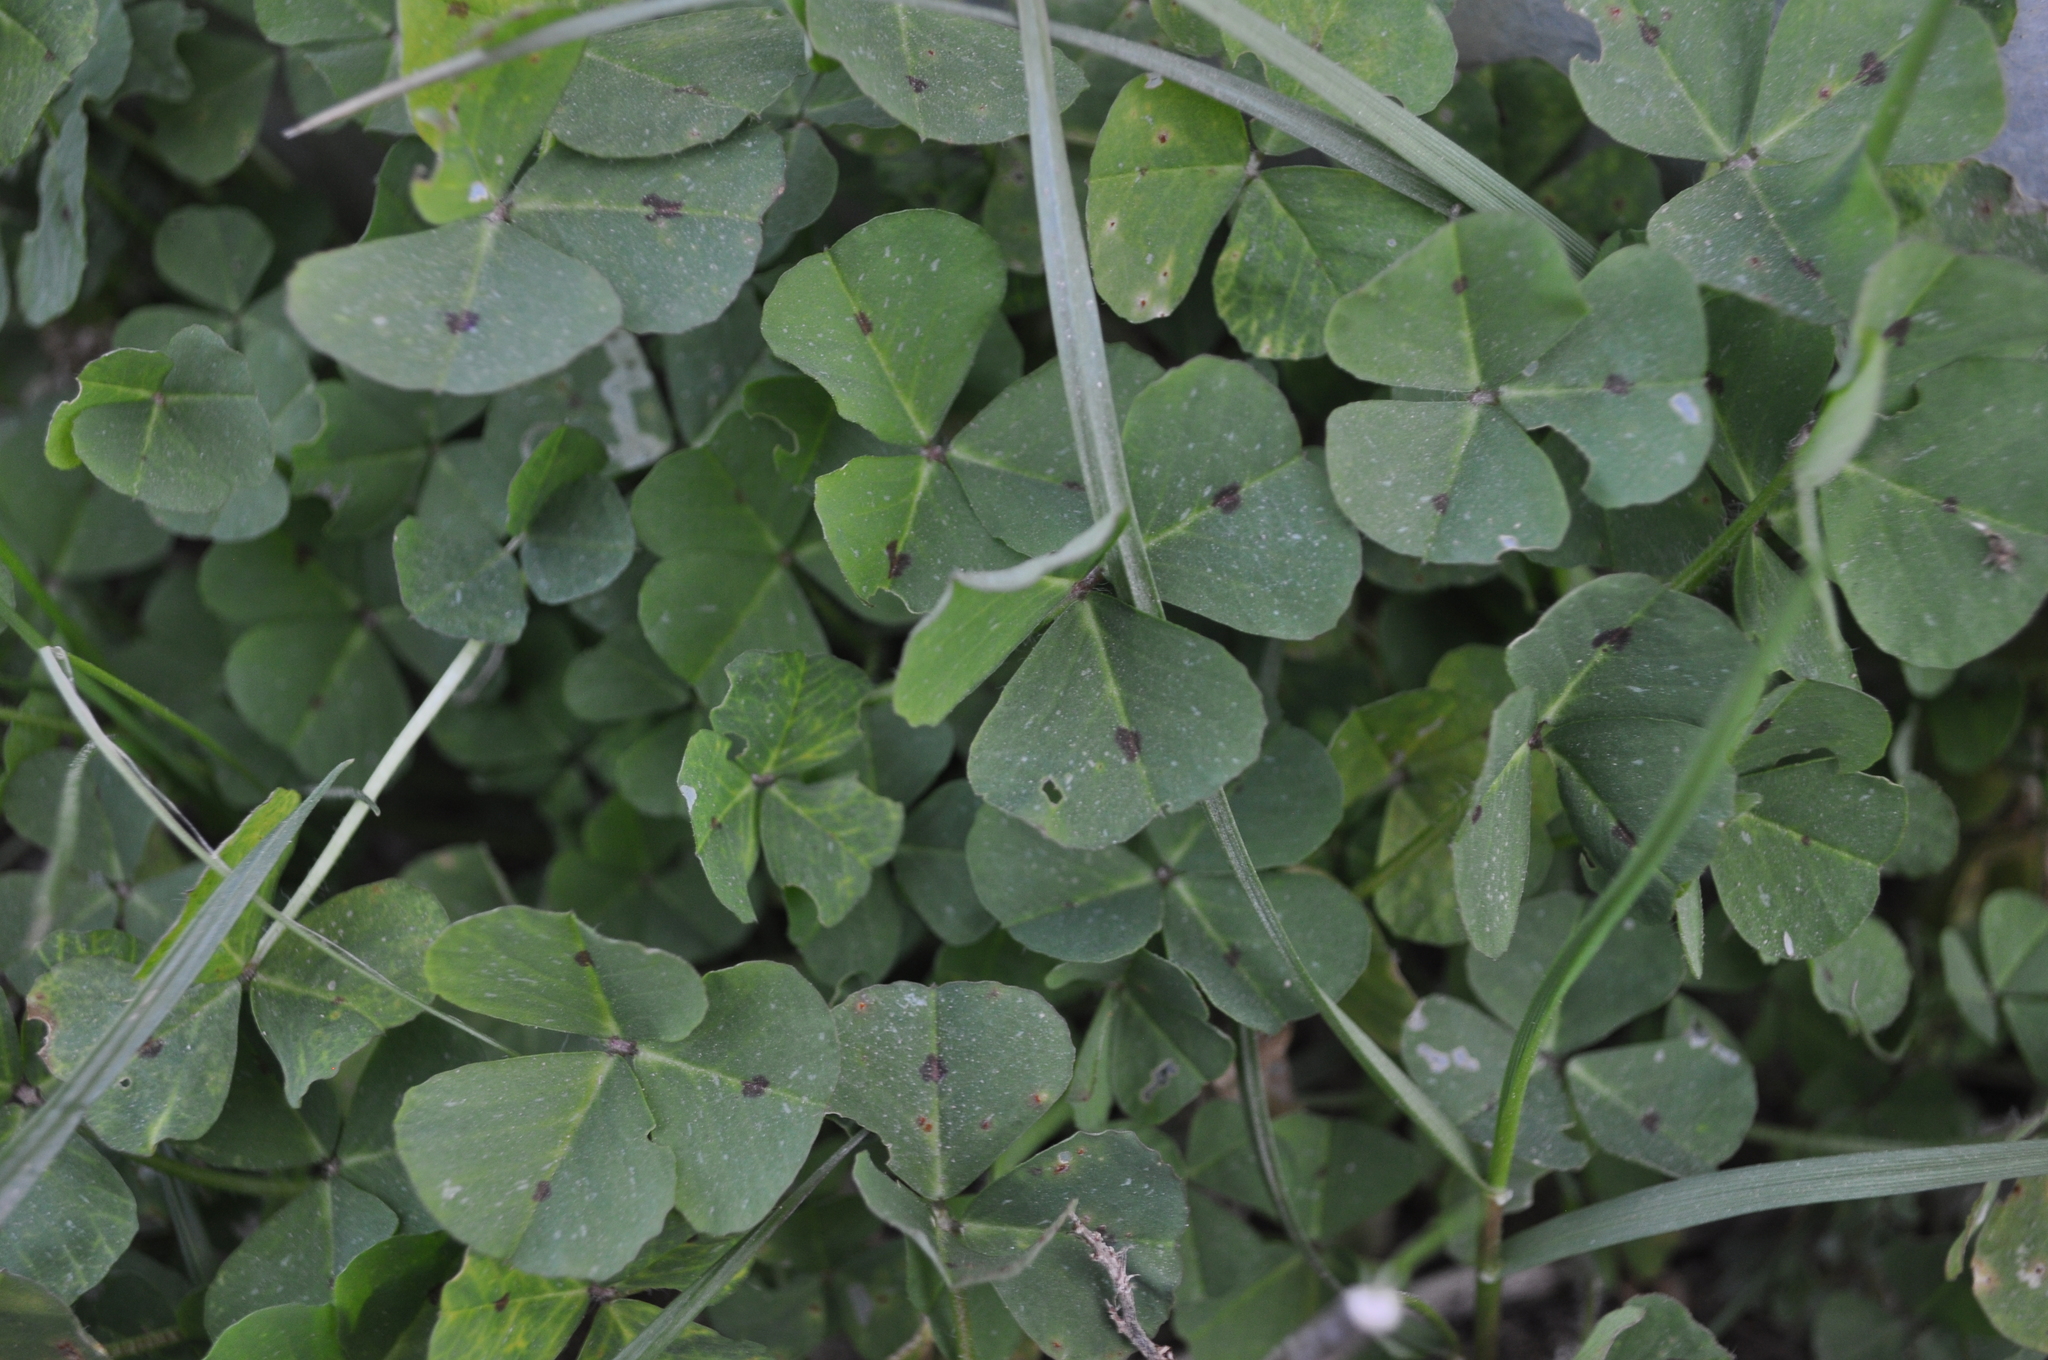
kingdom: Plantae
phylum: Tracheophyta
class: Magnoliopsida
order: Fabales
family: Fabaceae
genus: Medicago
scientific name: Medicago arabica
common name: Spotted medick
